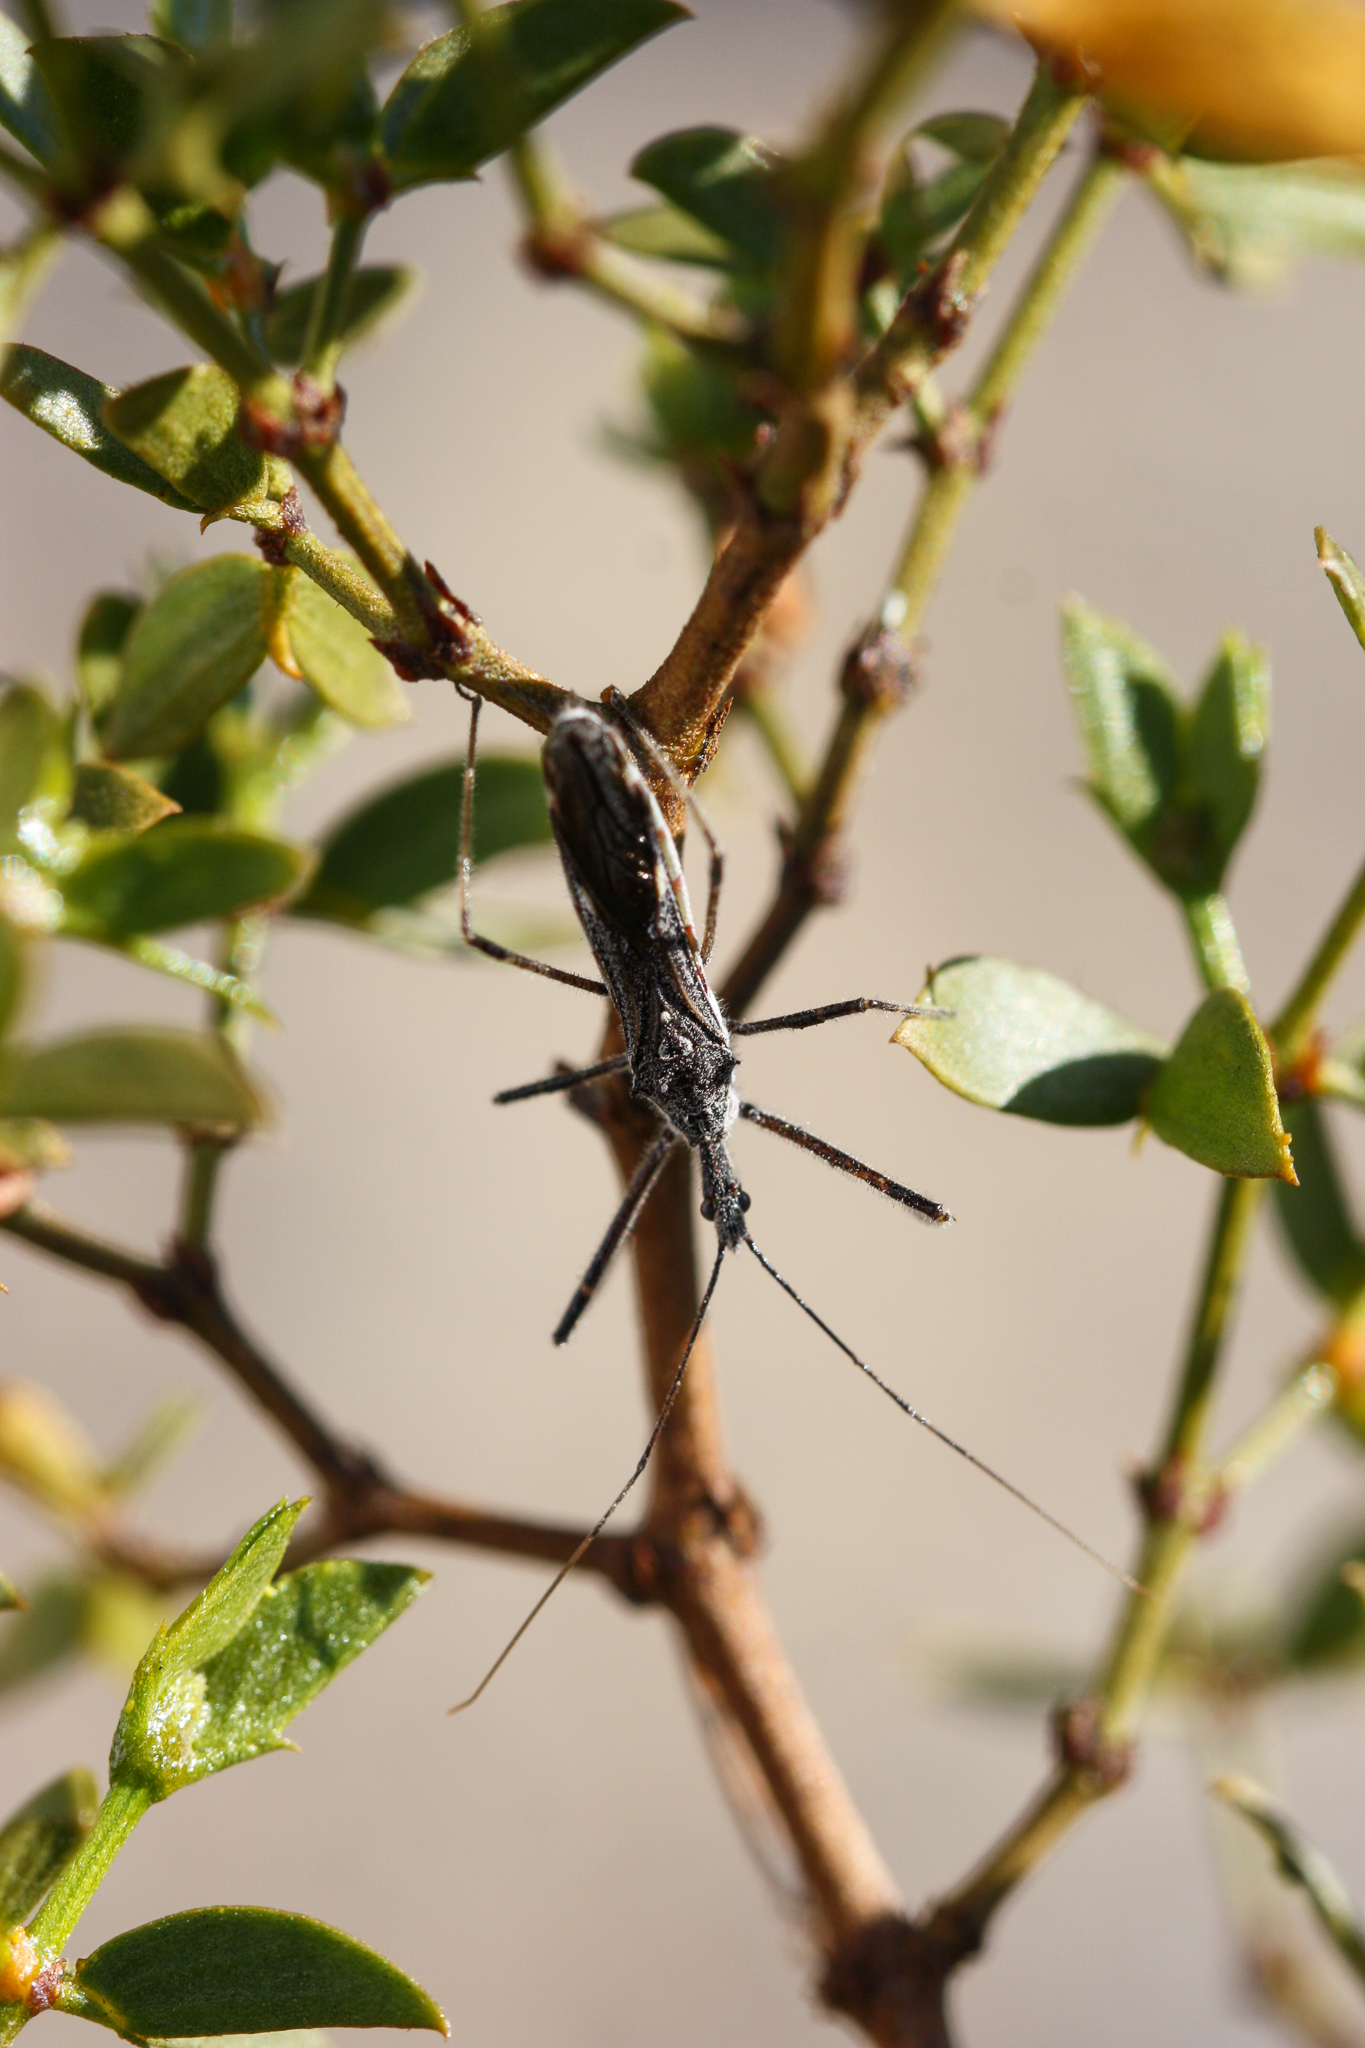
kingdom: Animalia
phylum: Arthropoda
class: Insecta
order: Hemiptera
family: Reduviidae
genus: Zelus
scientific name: Zelus tetracanthus
